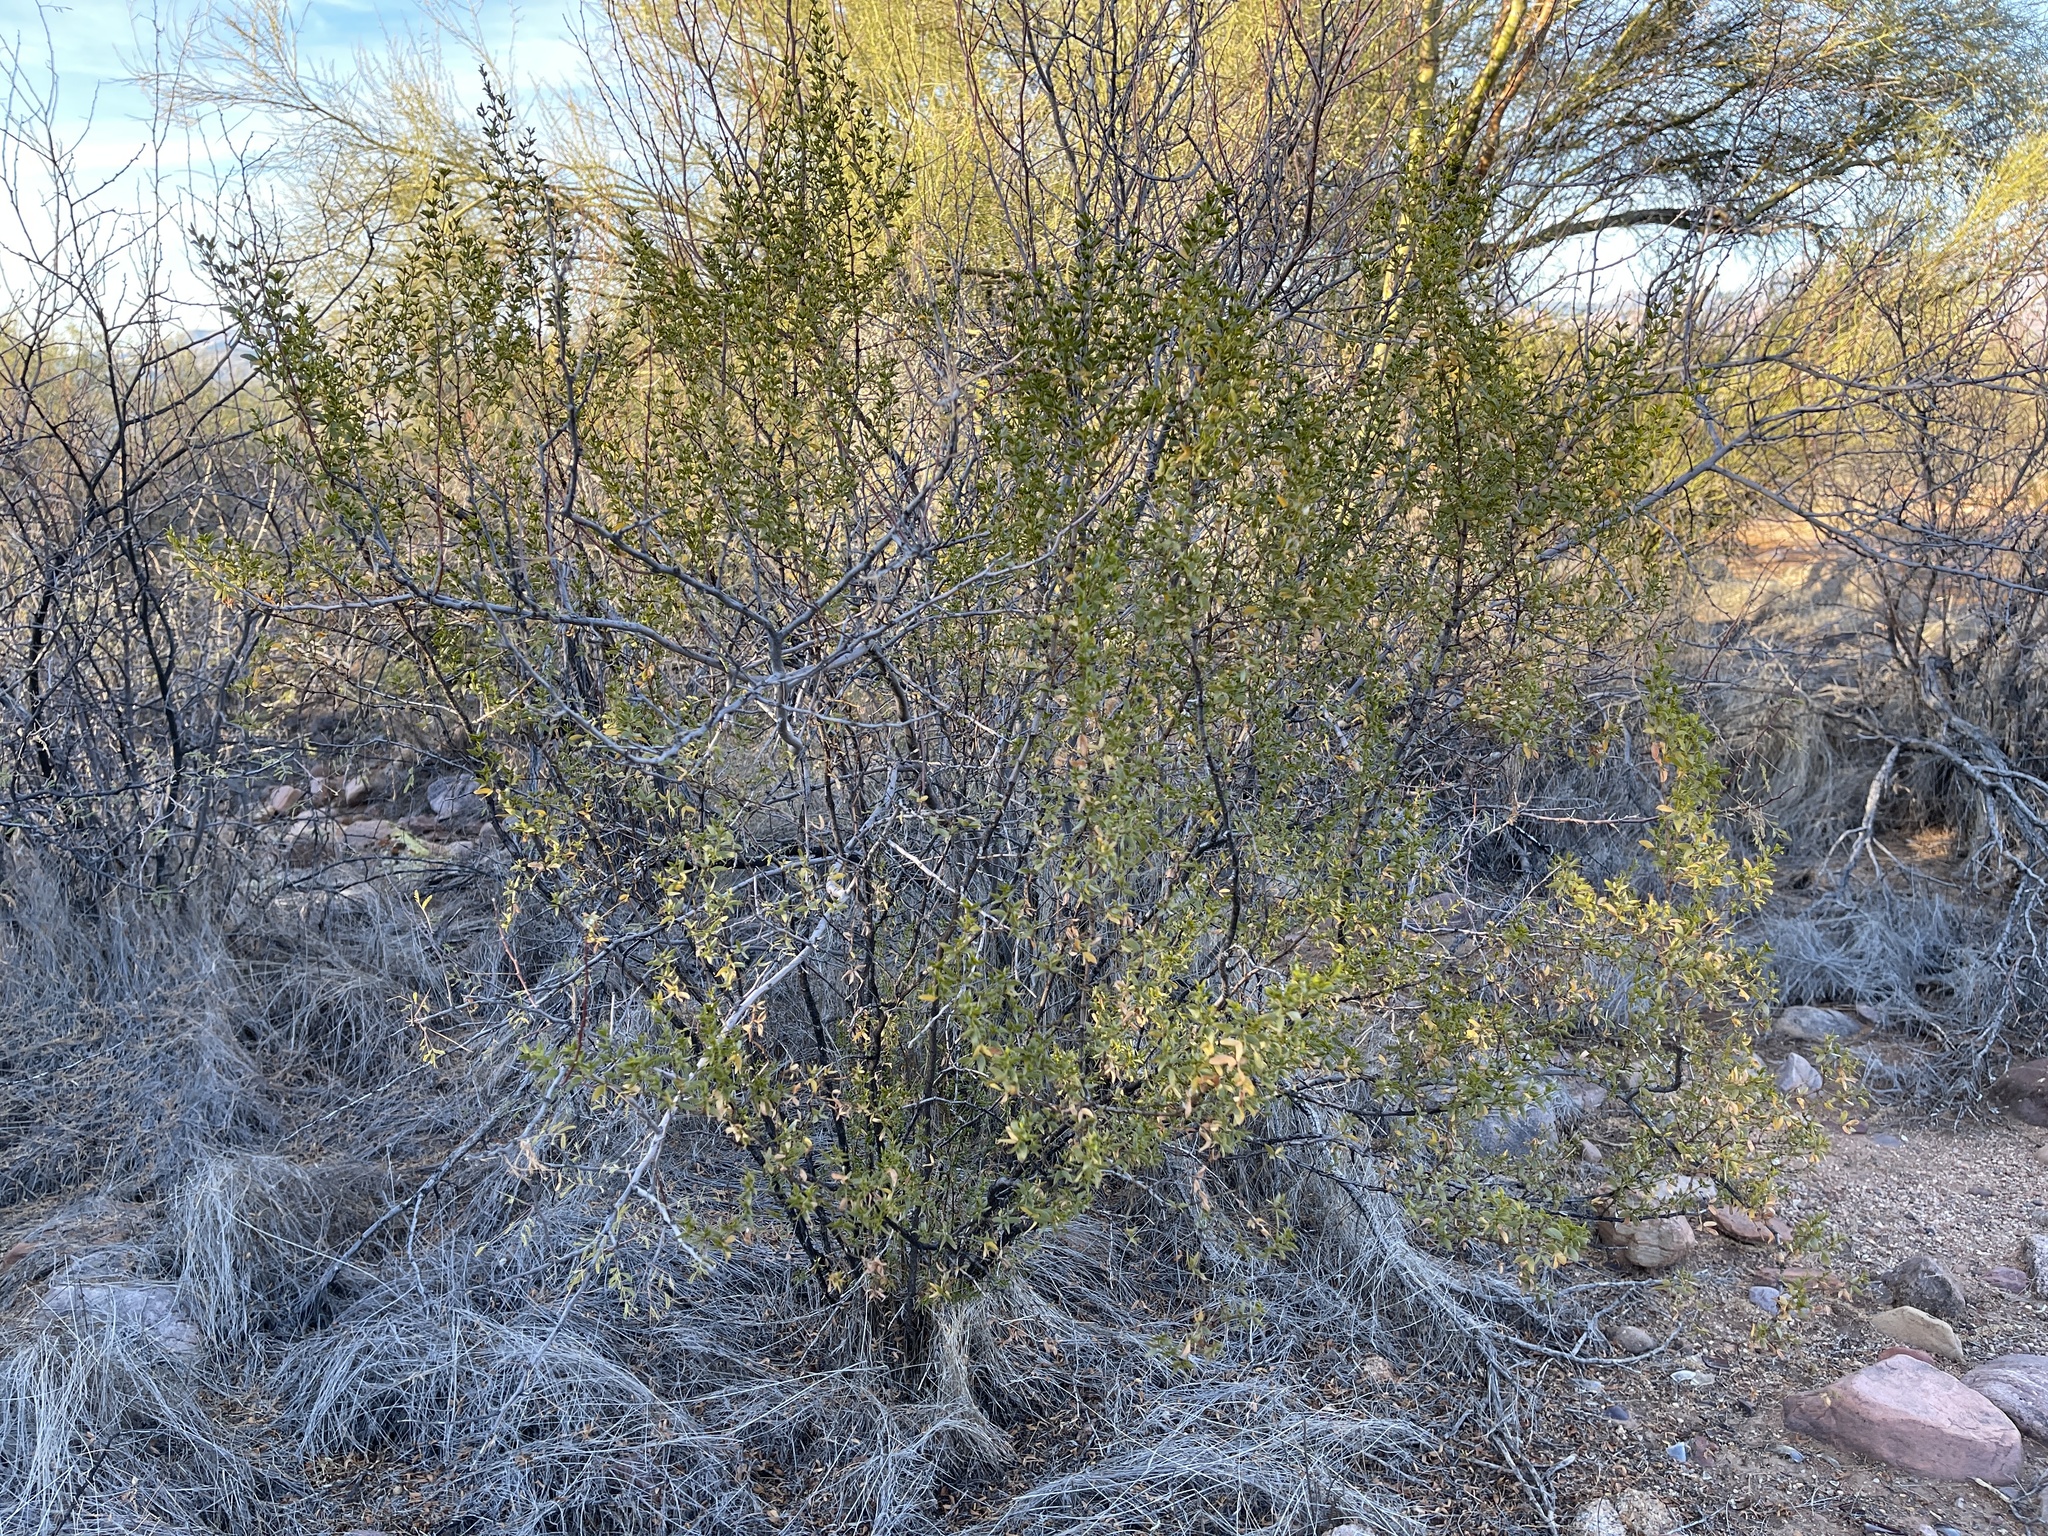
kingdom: Plantae
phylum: Tracheophyta
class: Magnoliopsida
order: Zygophyllales
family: Zygophyllaceae
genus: Larrea
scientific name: Larrea tridentata
